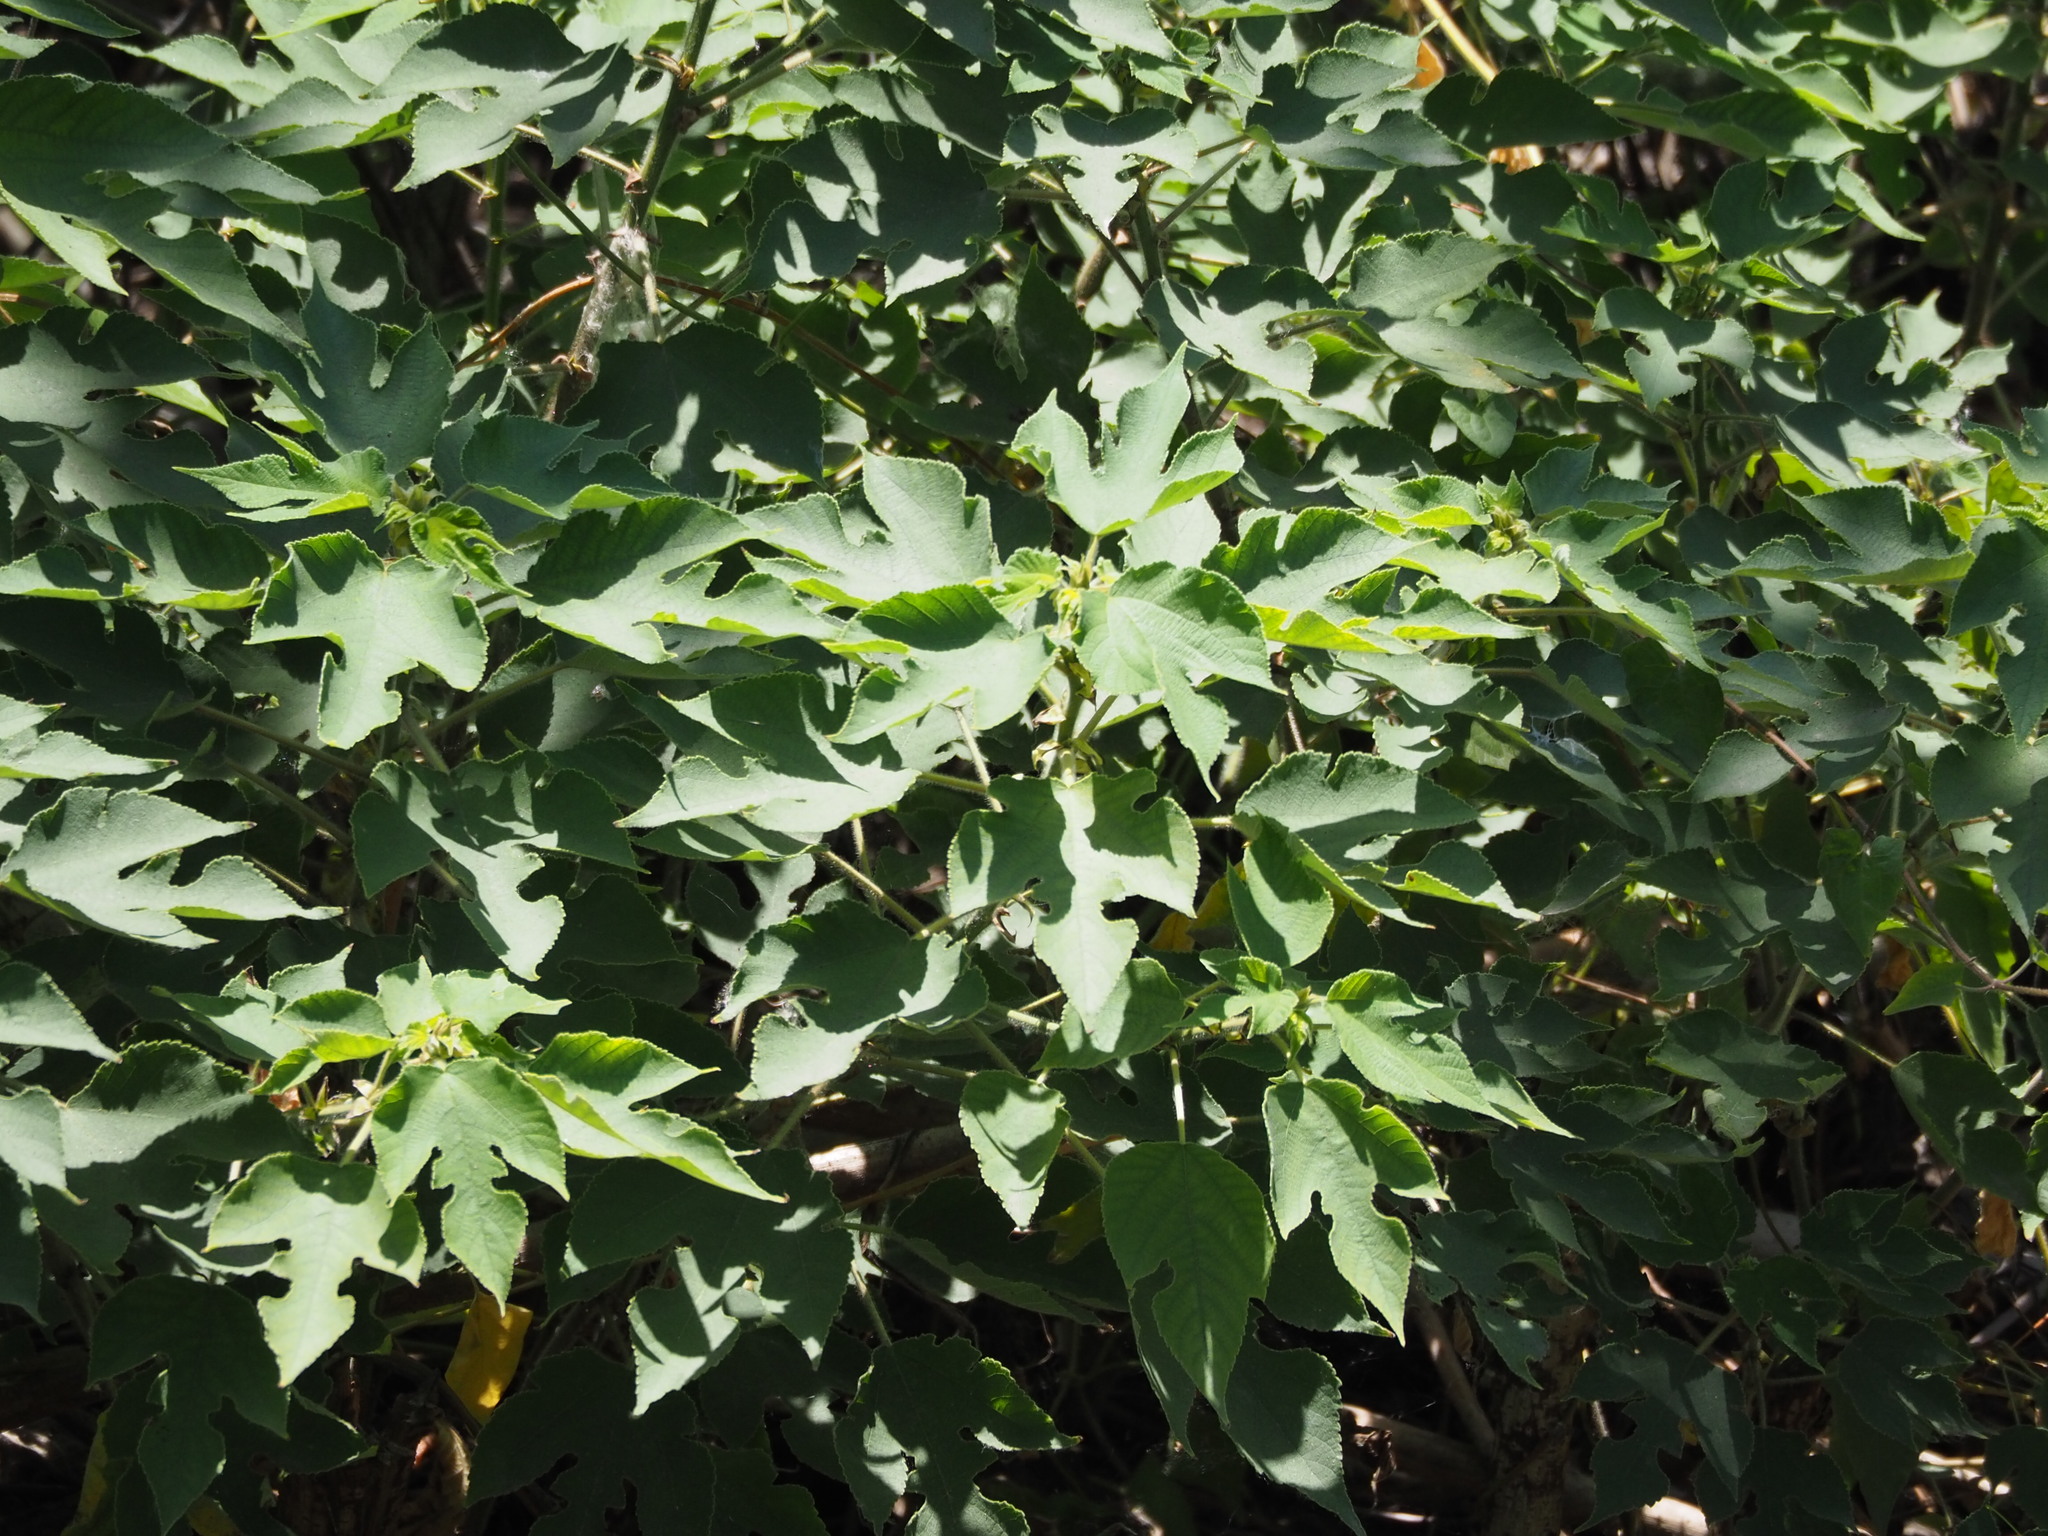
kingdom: Plantae
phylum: Tracheophyta
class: Magnoliopsida
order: Rosales
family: Moraceae
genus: Broussonetia
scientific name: Broussonetia papyrifera
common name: Paper mulberry
